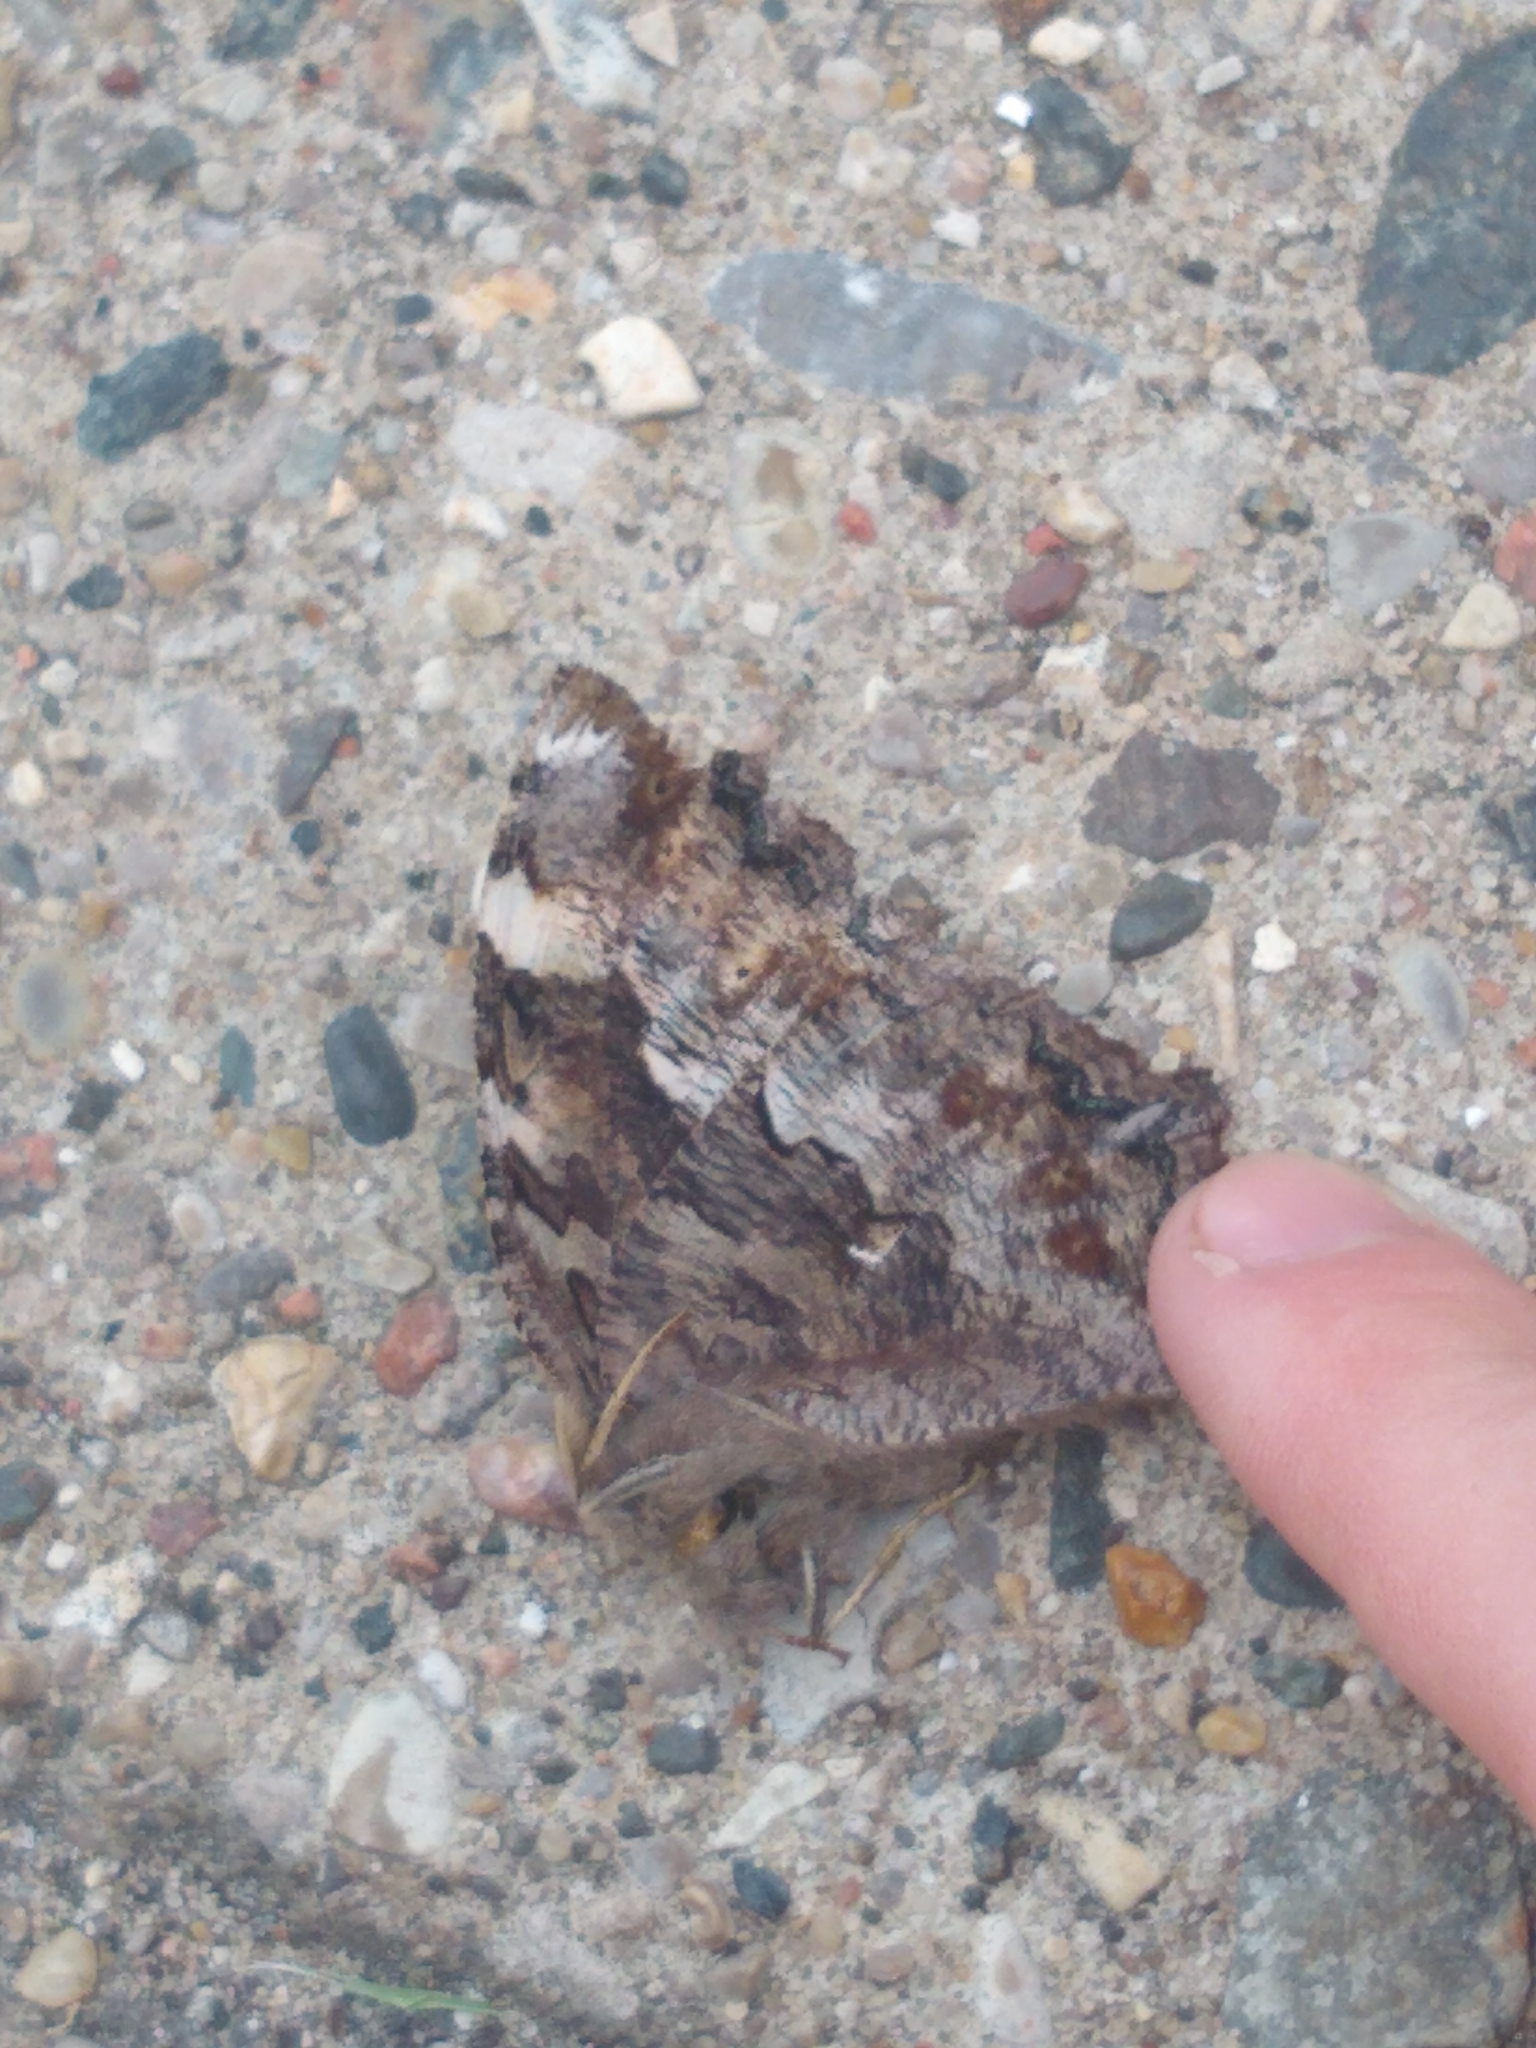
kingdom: Animalia
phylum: Arthropoda
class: Insecta
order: Lepidoptera
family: Nymphalidae
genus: Polygonia
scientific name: Polygonia vaualbum
